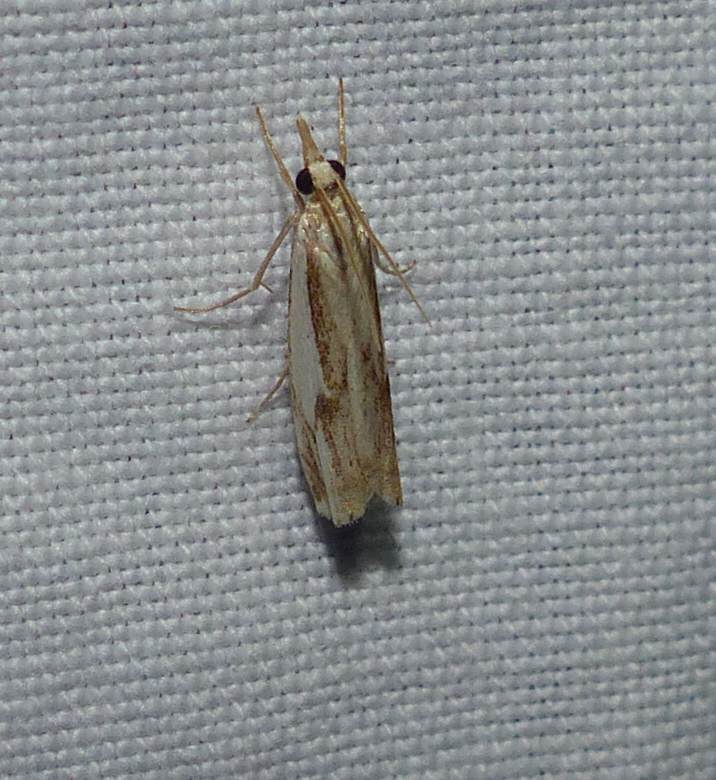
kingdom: Animalia
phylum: Arthropoda
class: Insecta
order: Lepidoptera
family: Crambidae
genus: Crambus
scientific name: Crambus agitatellus
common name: Double-banded grass-veneer
